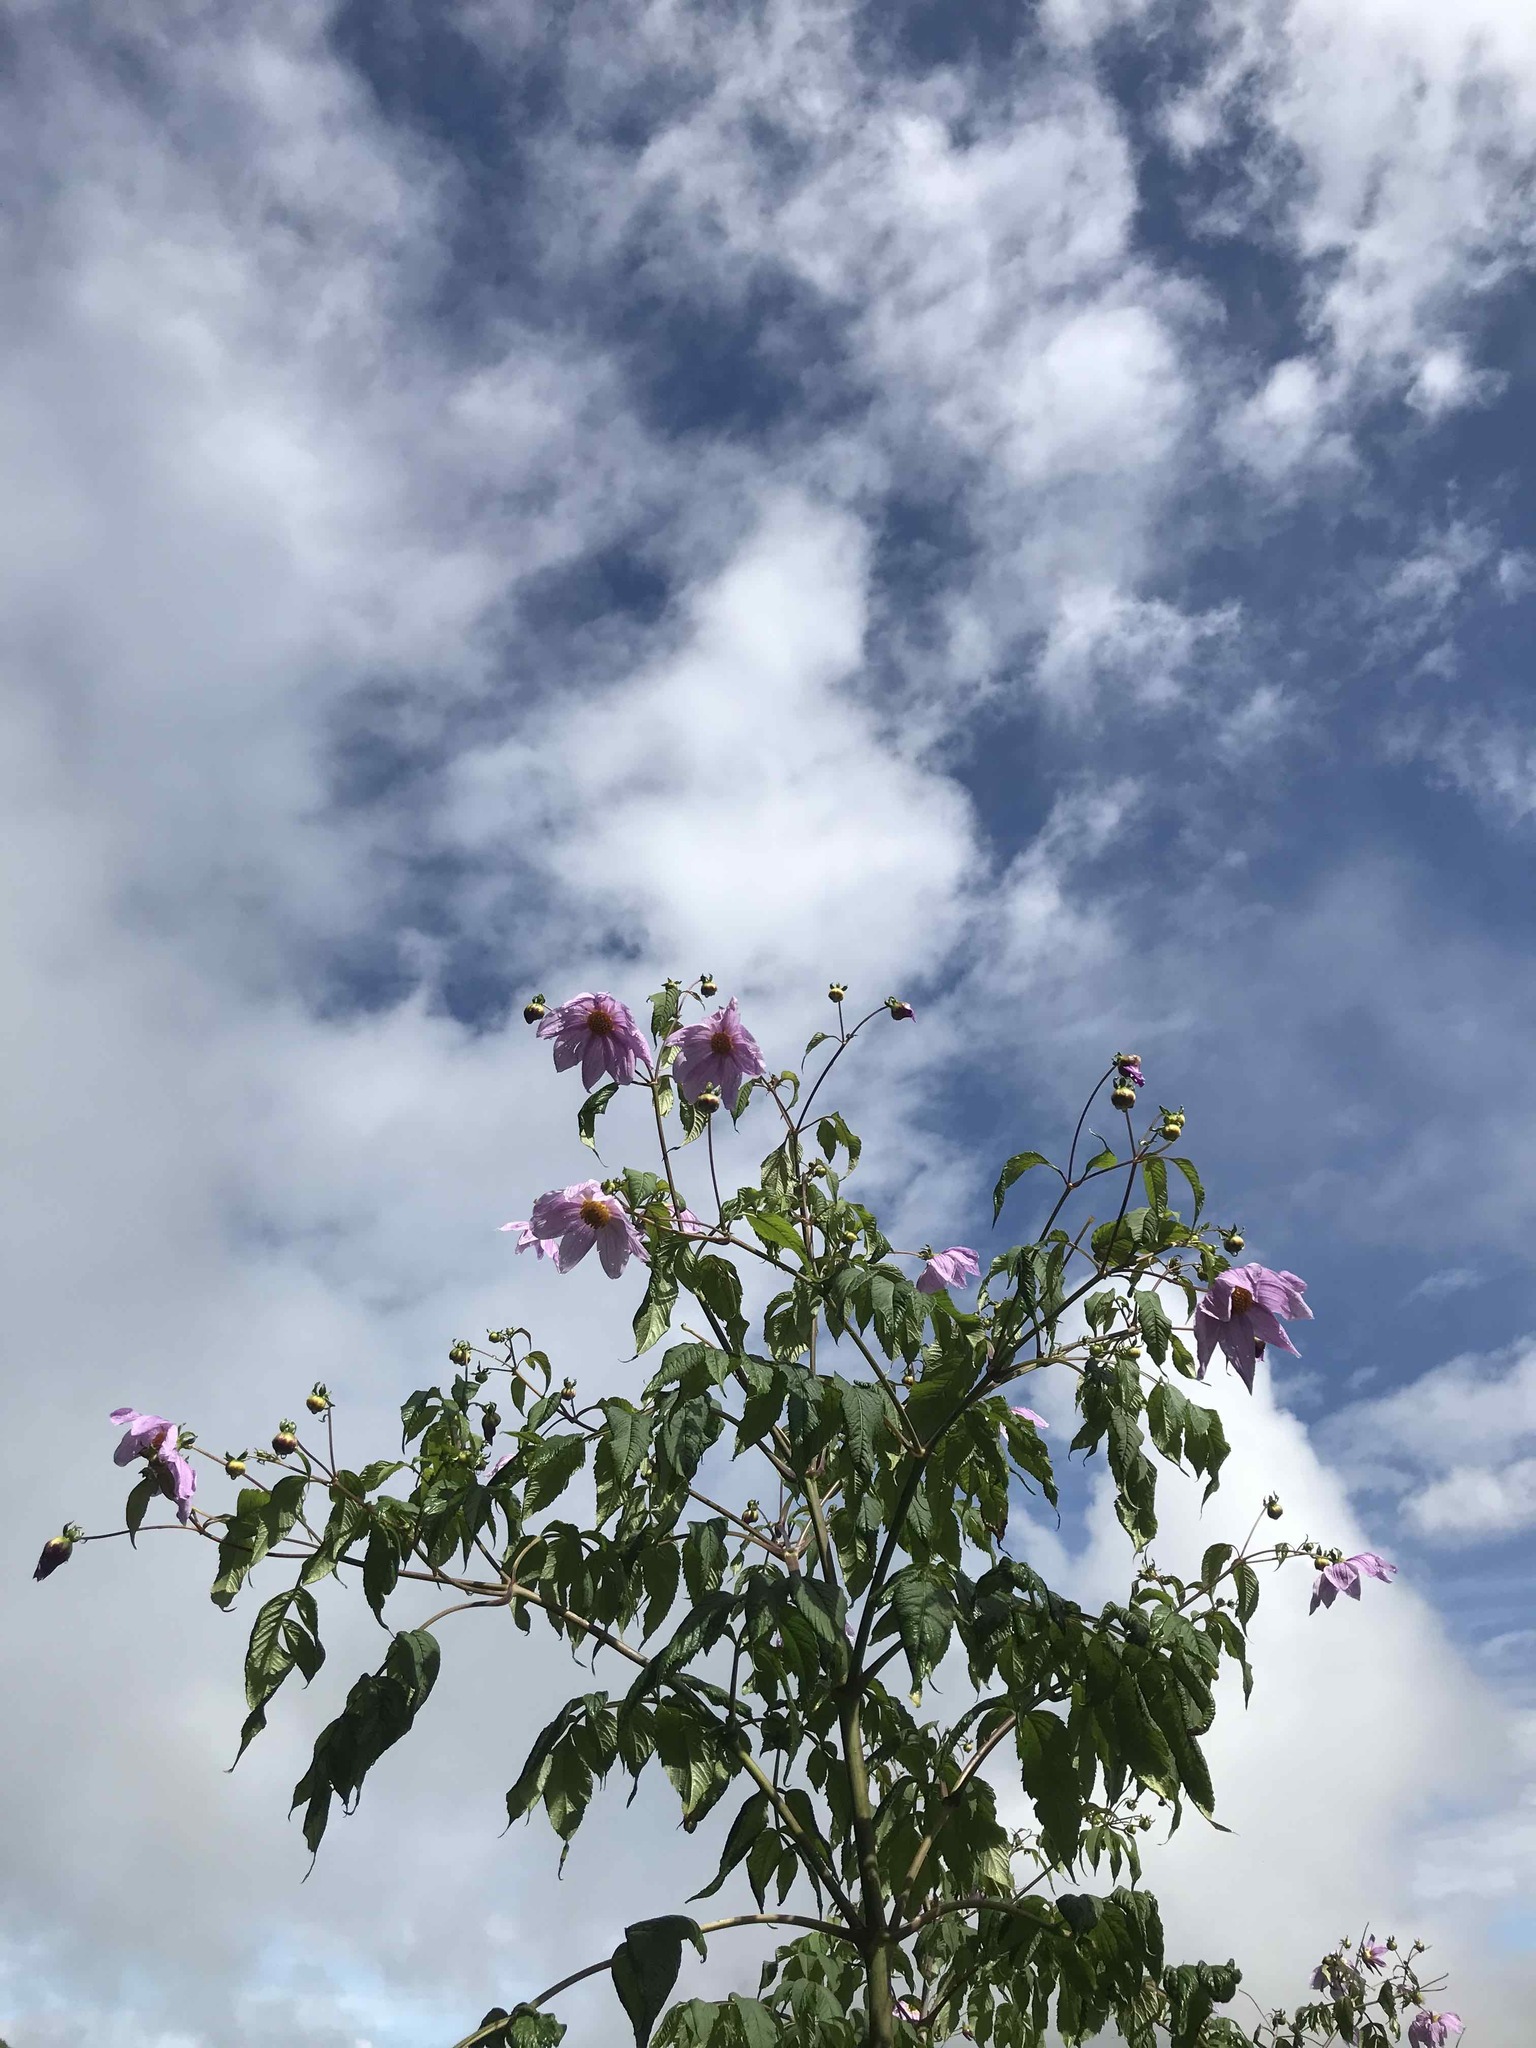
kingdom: Plantae
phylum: Tracheophyta
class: Magnoliopsida
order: Asterales
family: Asteraceae
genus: Dahlia
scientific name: Dahlia imperialis
